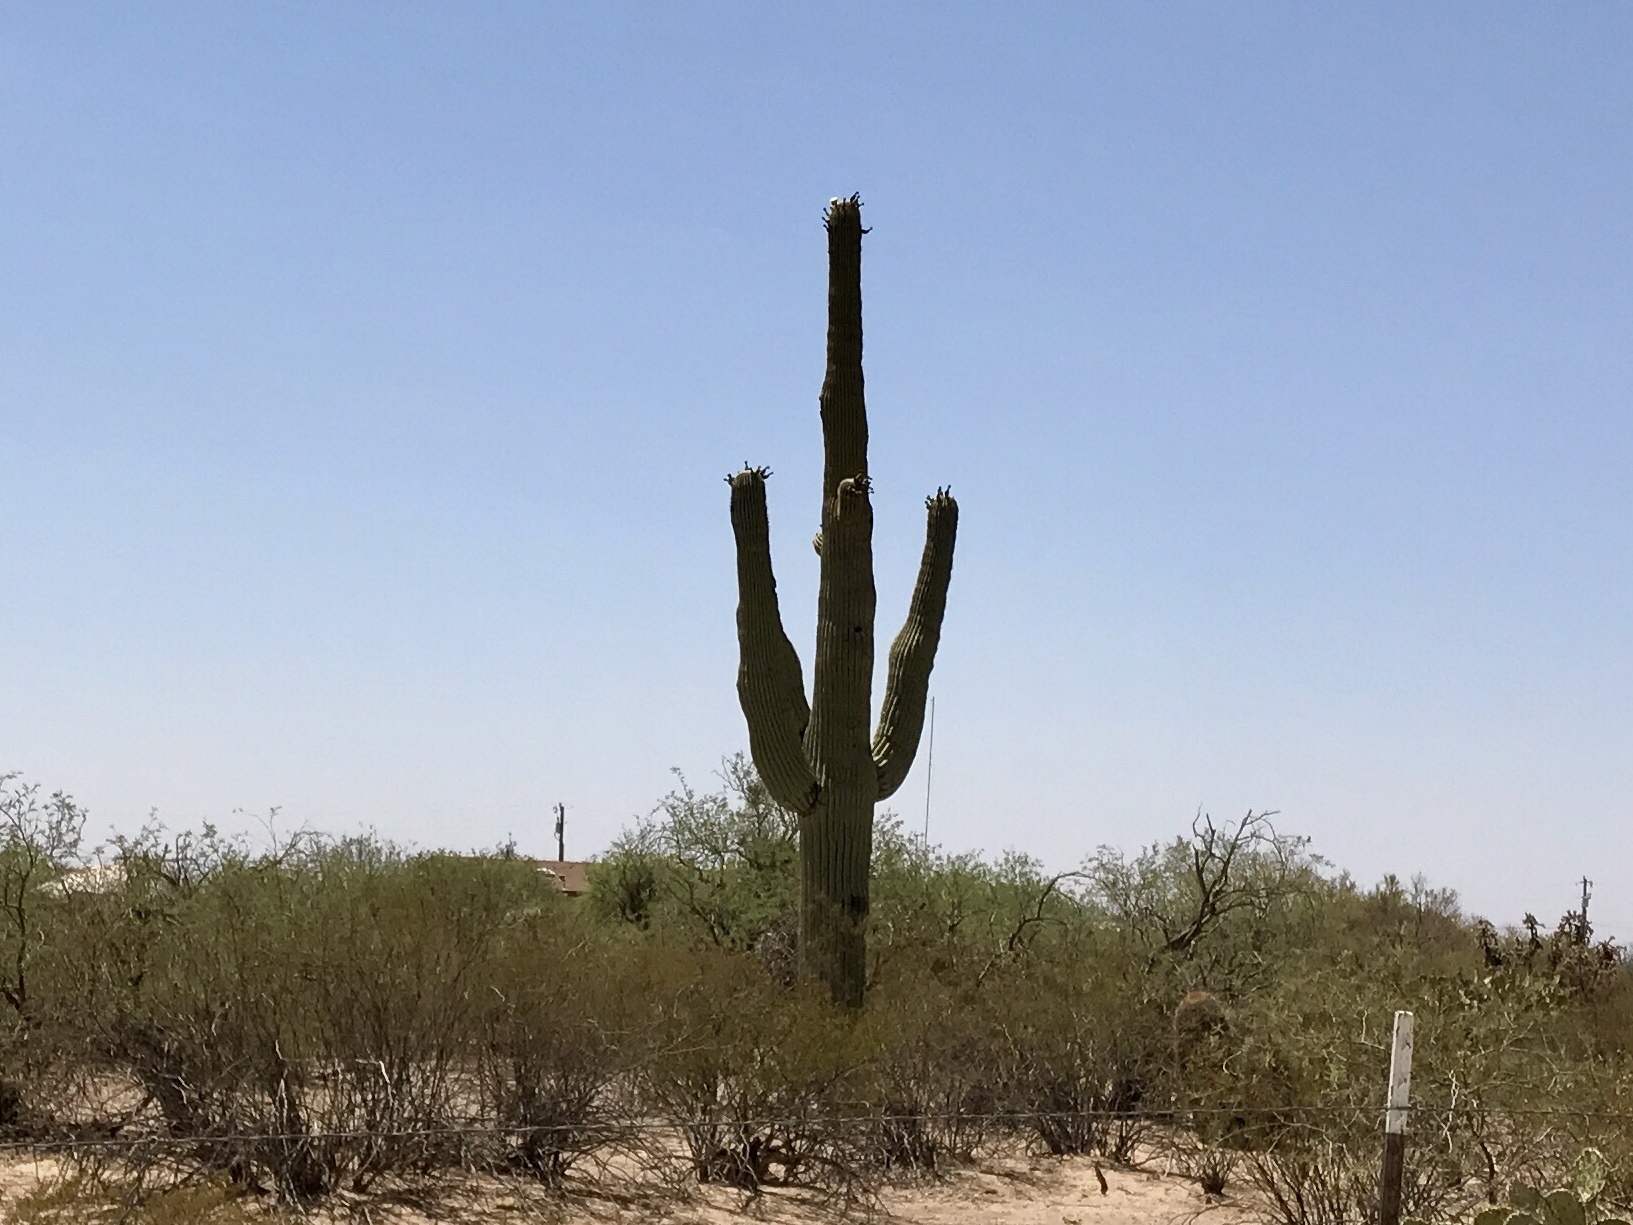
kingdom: Plantae
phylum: Tracheophyta
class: Magnoliopsida
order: Caryophyllales
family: Cactaceae
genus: Carnegiea
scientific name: Carnegiea gigantea
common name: Saguaro
